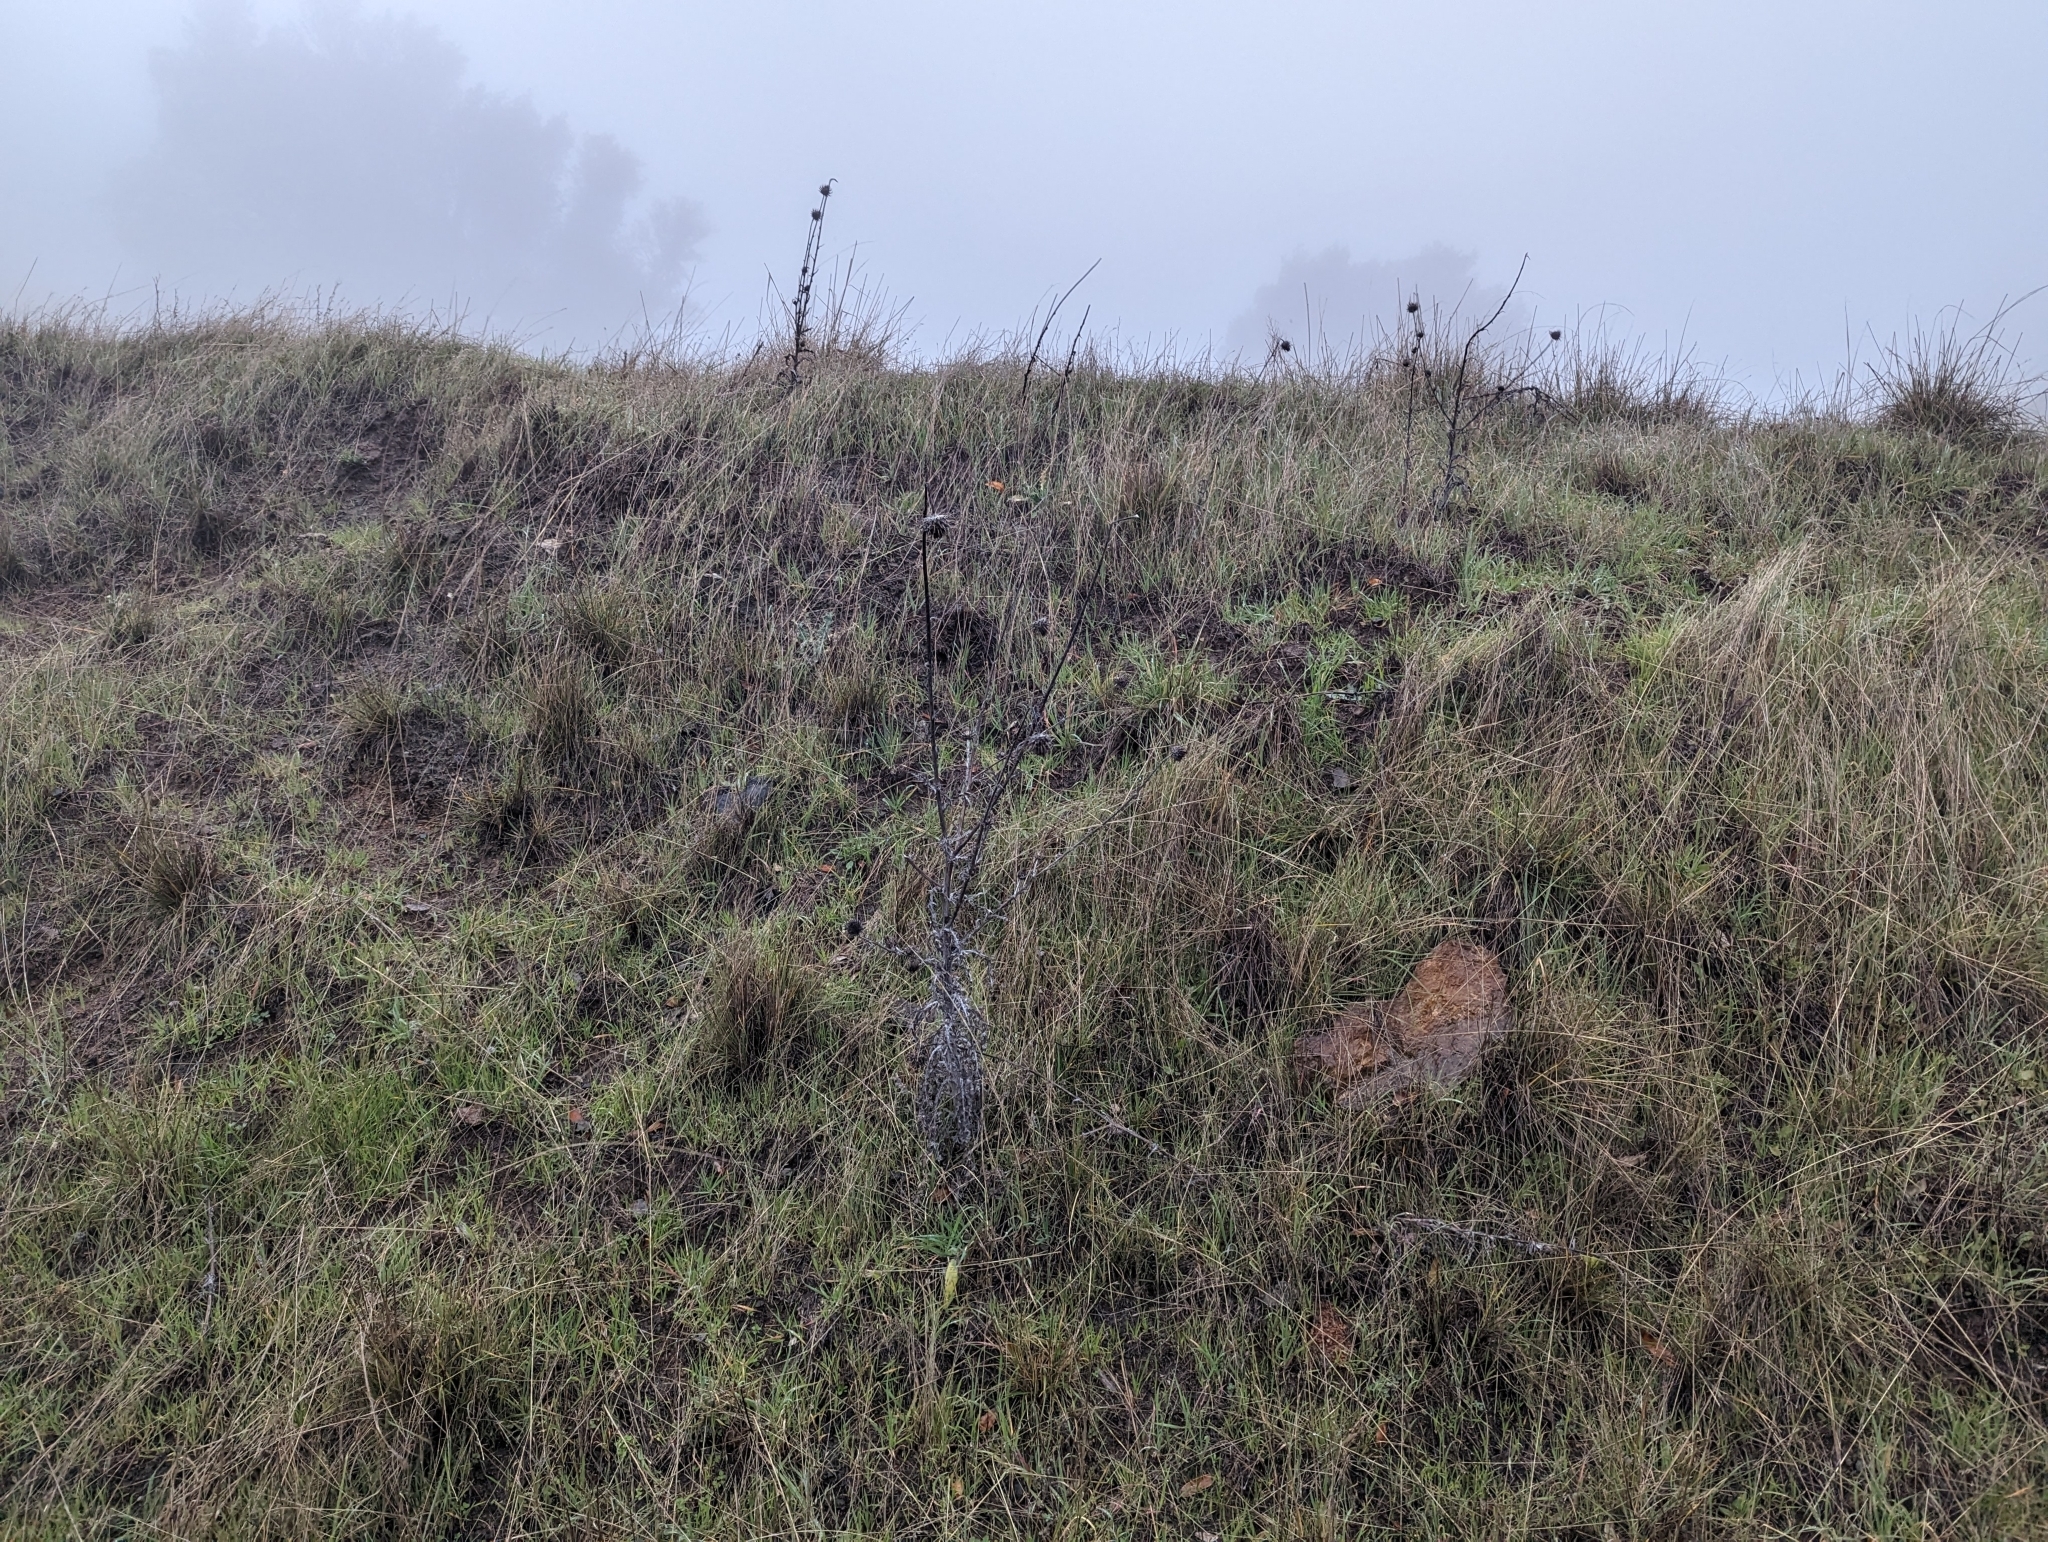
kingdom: Plantae
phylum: Tracheophyta
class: Magnoliopsida
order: Asterales
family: Asteraceae
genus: Cirsium
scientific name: Cirsium occidentale
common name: Western thistle
